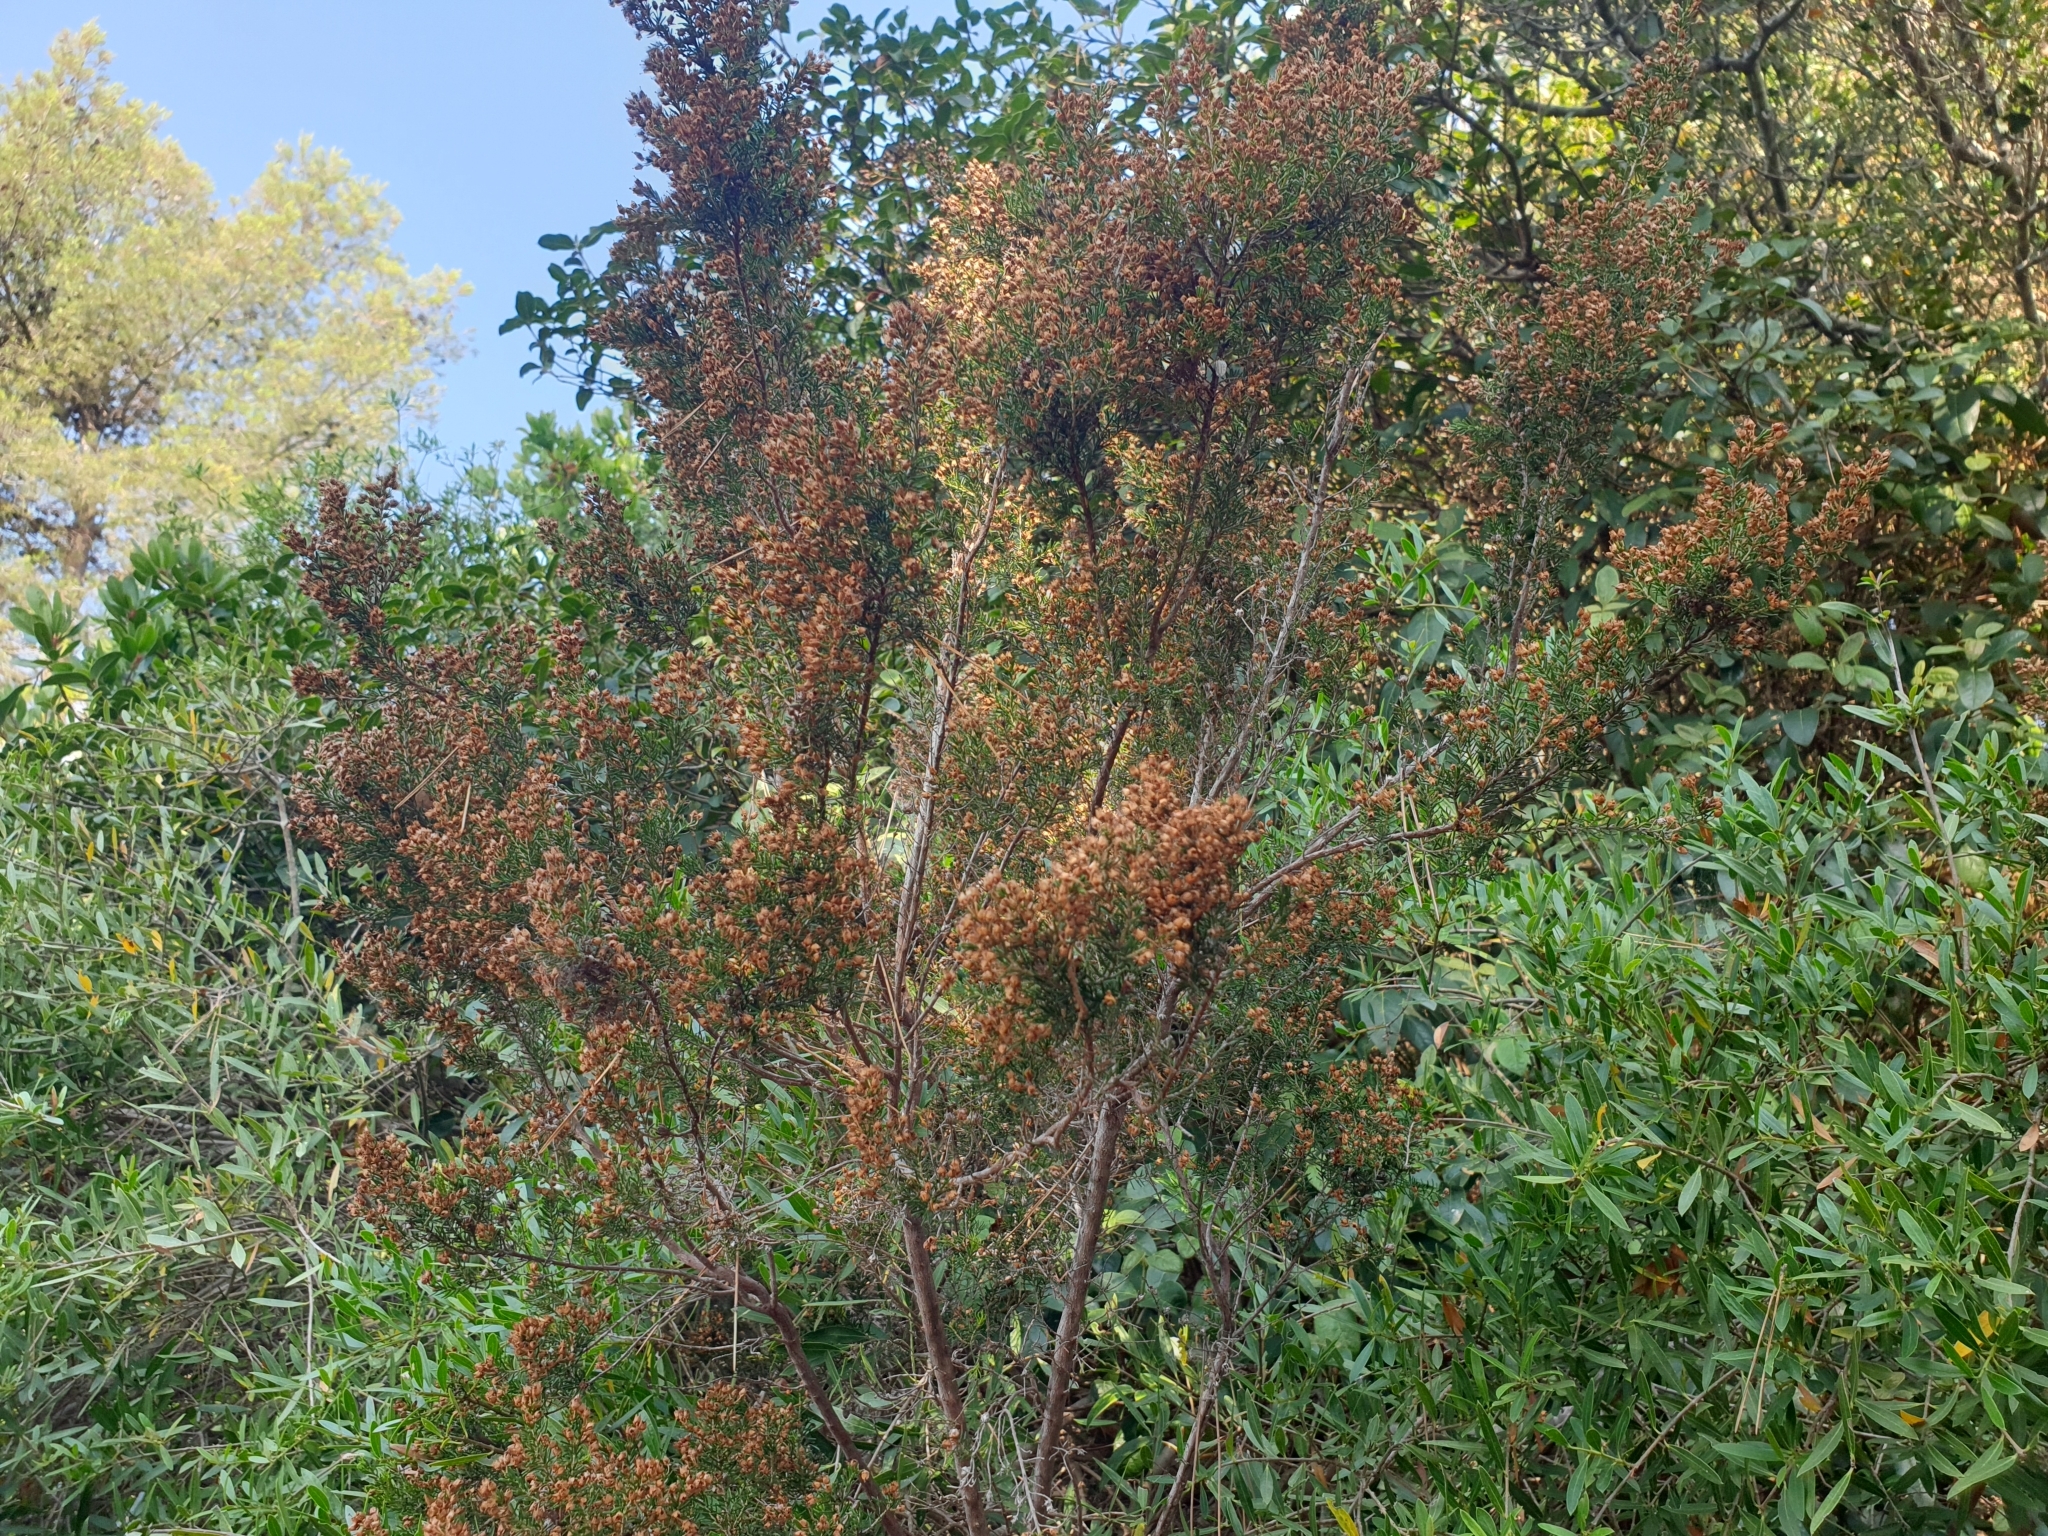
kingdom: Plantae
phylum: Tracheophyta
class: Magnoliopsida
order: Ericales
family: Ericaceae
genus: Erica
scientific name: Erica arborea
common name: Tree heath
